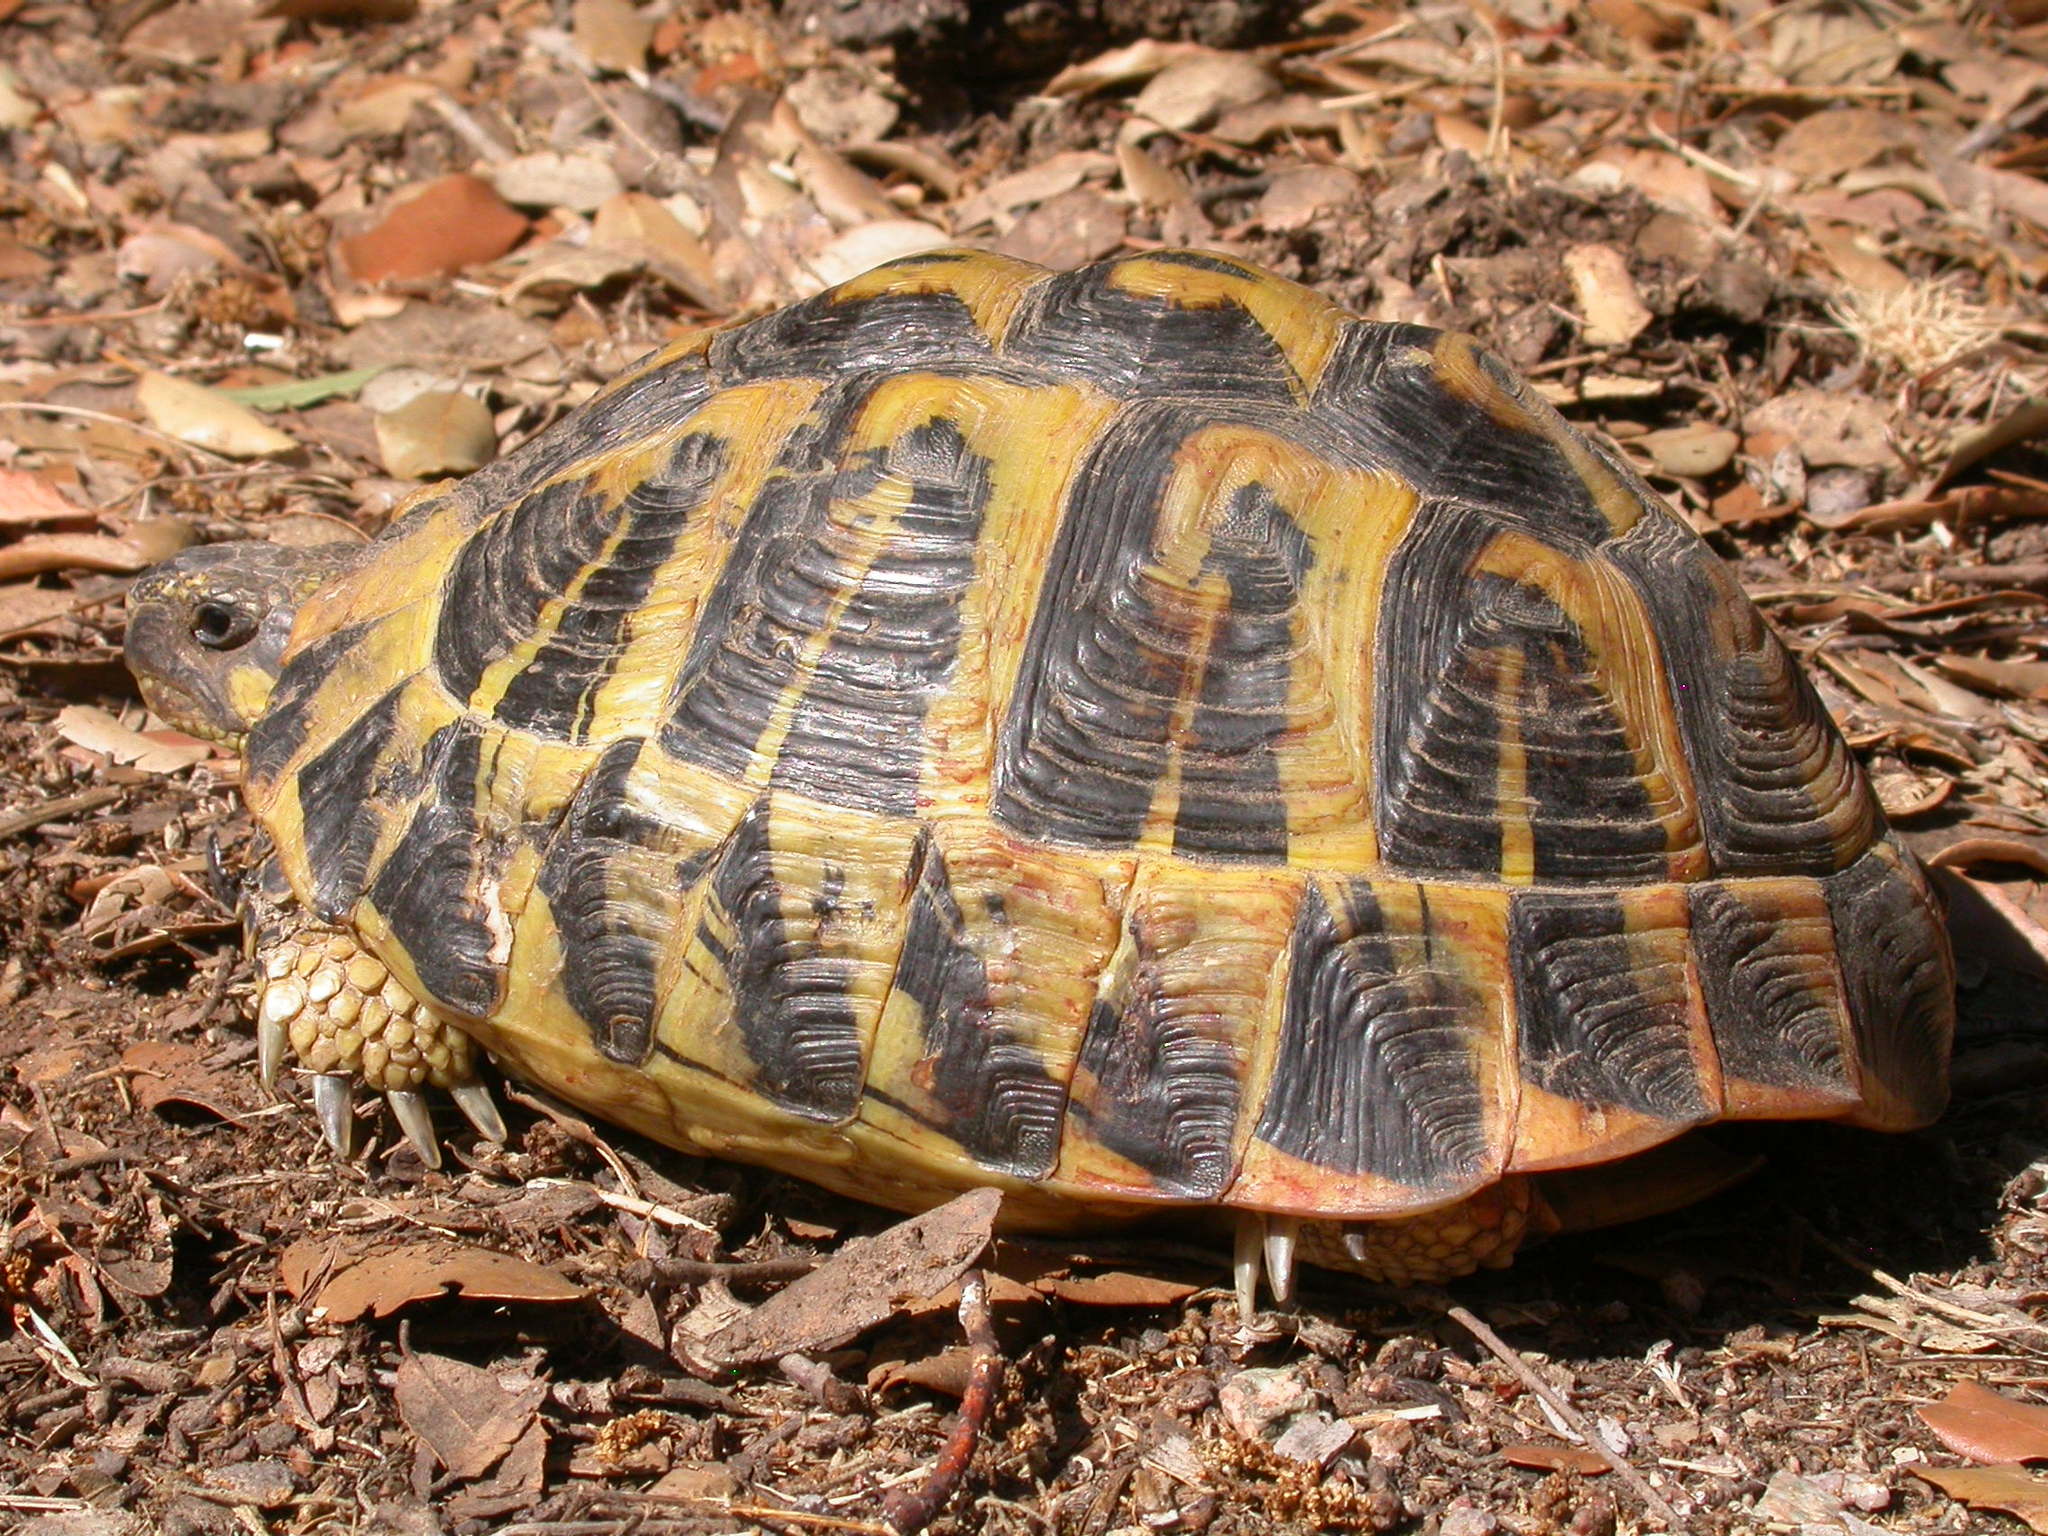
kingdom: Animalia
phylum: Chordata
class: Testudines
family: Testudinidae
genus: Testudo
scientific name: Testudo hermanni
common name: Hermann's tortoise
